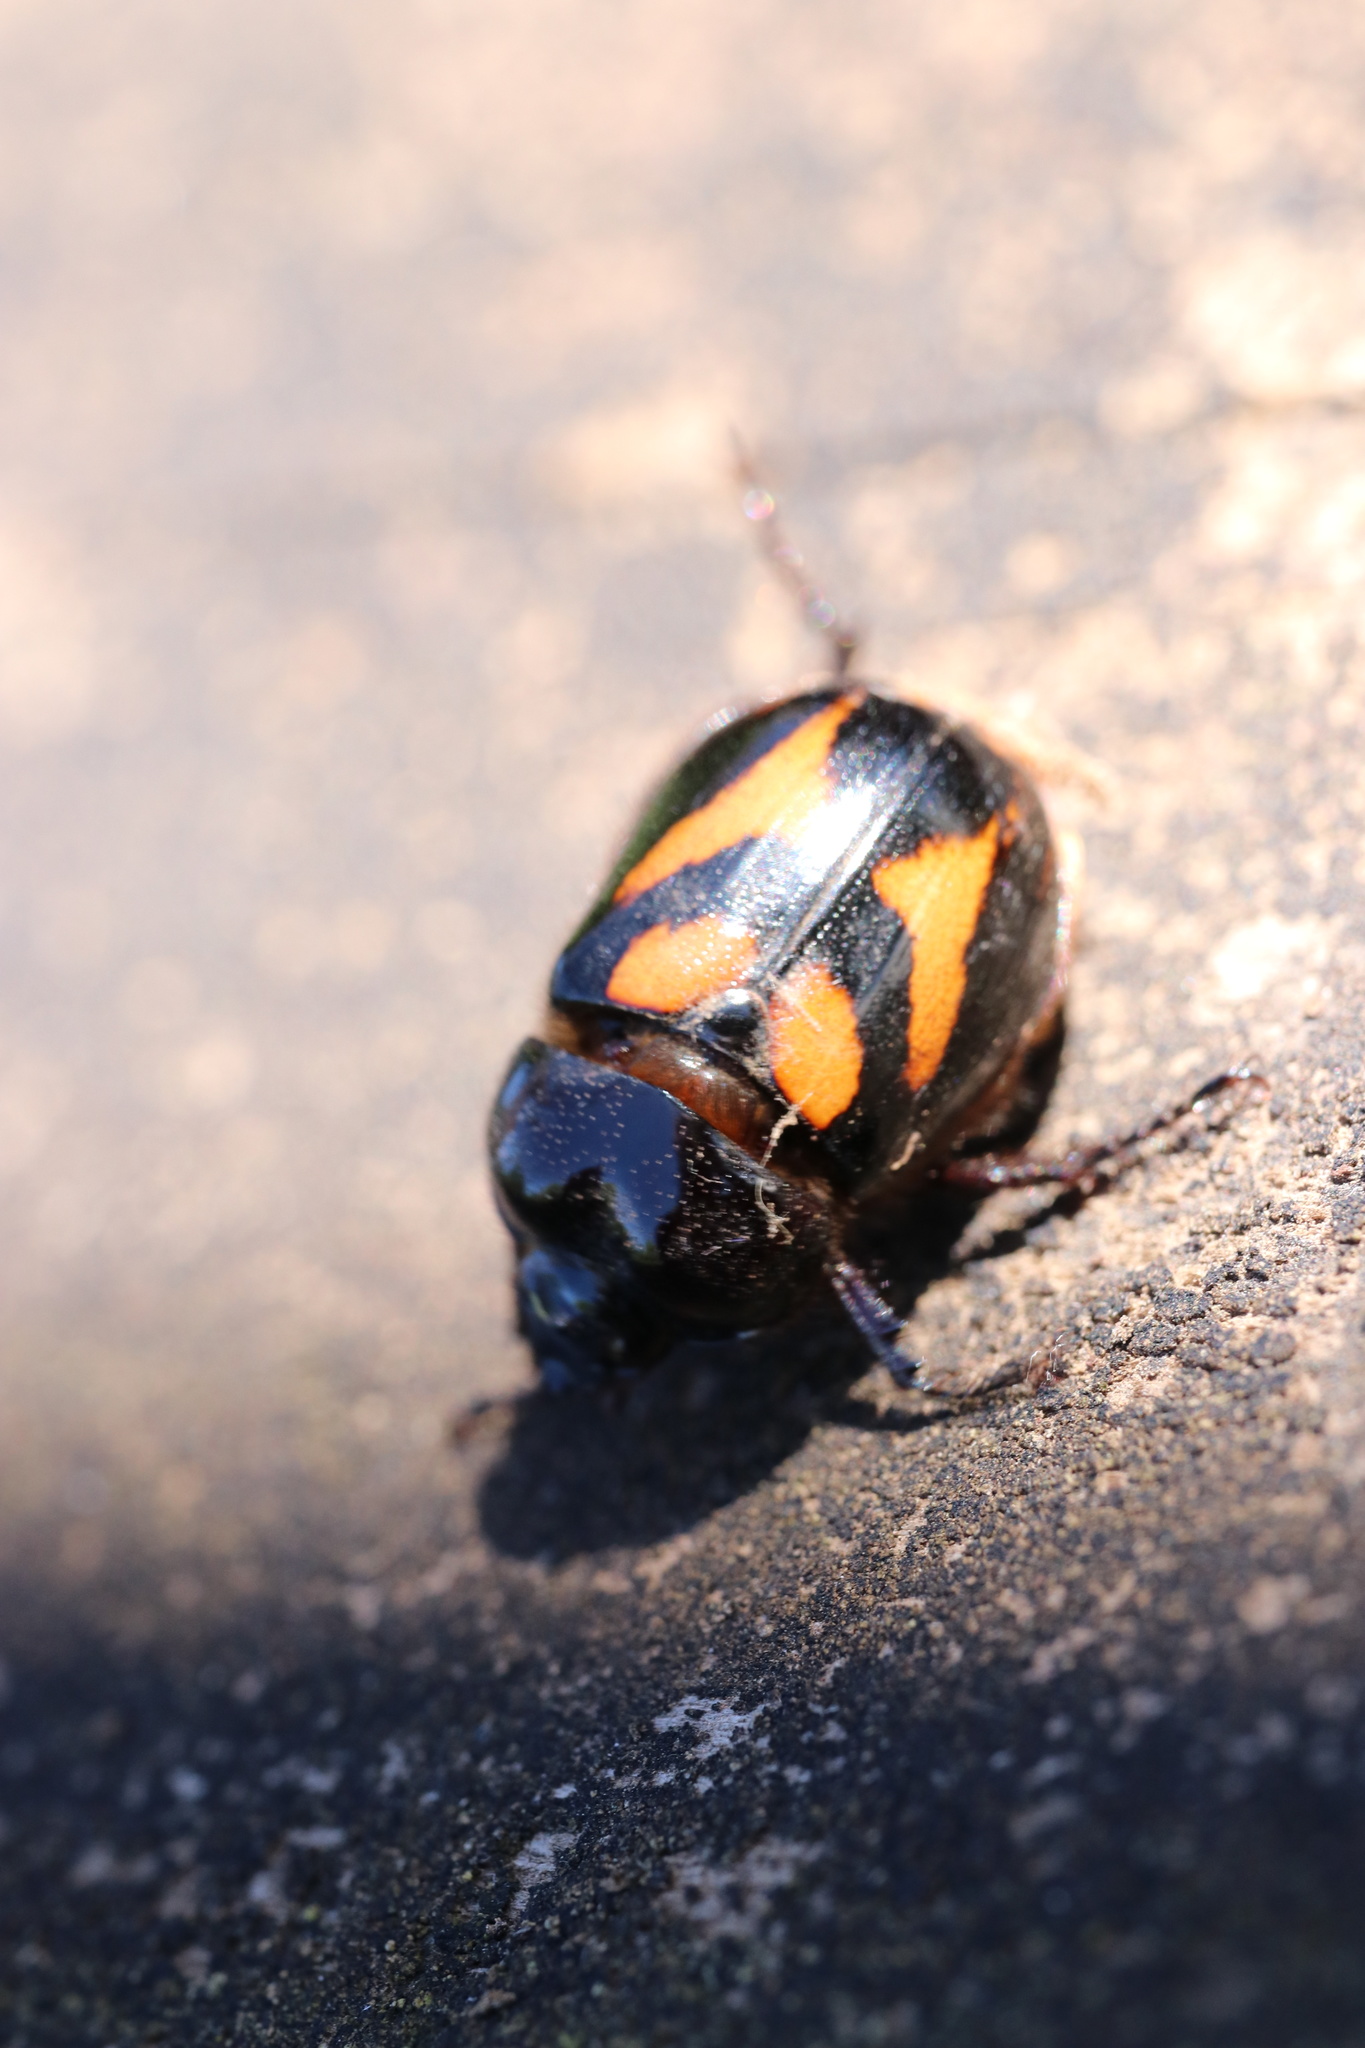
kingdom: Animalia
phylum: Arthropoda
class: Insecta
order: Coleoptera
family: Scarabaeidae
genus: Oryctomorphus
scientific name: Oryctomorphus bimaculatus
